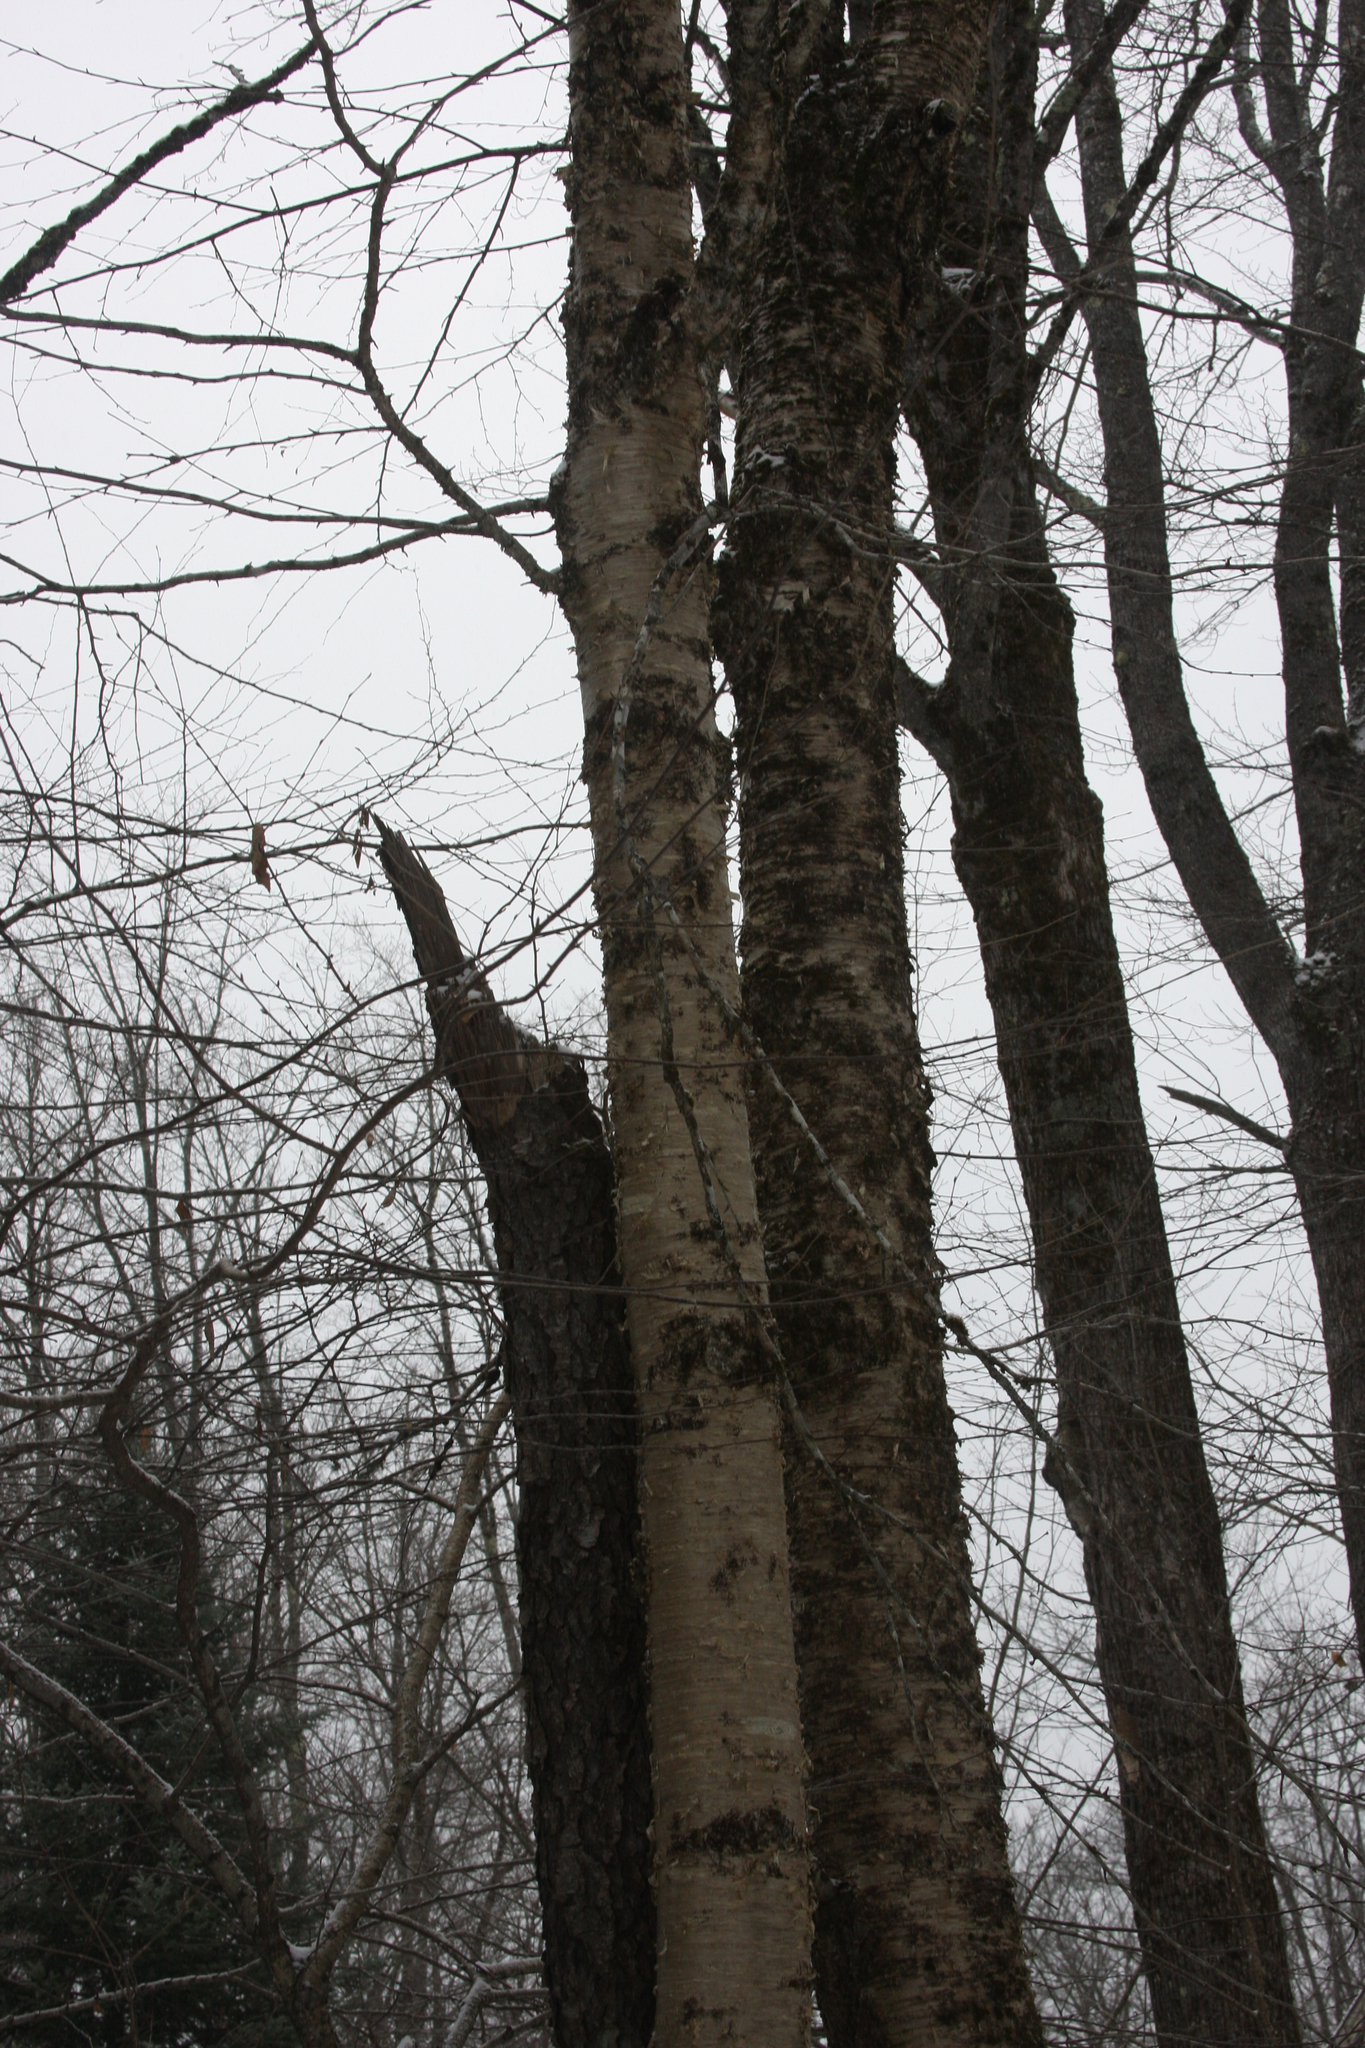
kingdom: Plantae
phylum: Tracheophyta
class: Magnoliopsida
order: Fagales
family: Betulaceae
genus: Betula
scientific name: Betula alleghaniensis
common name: Yellow birch
